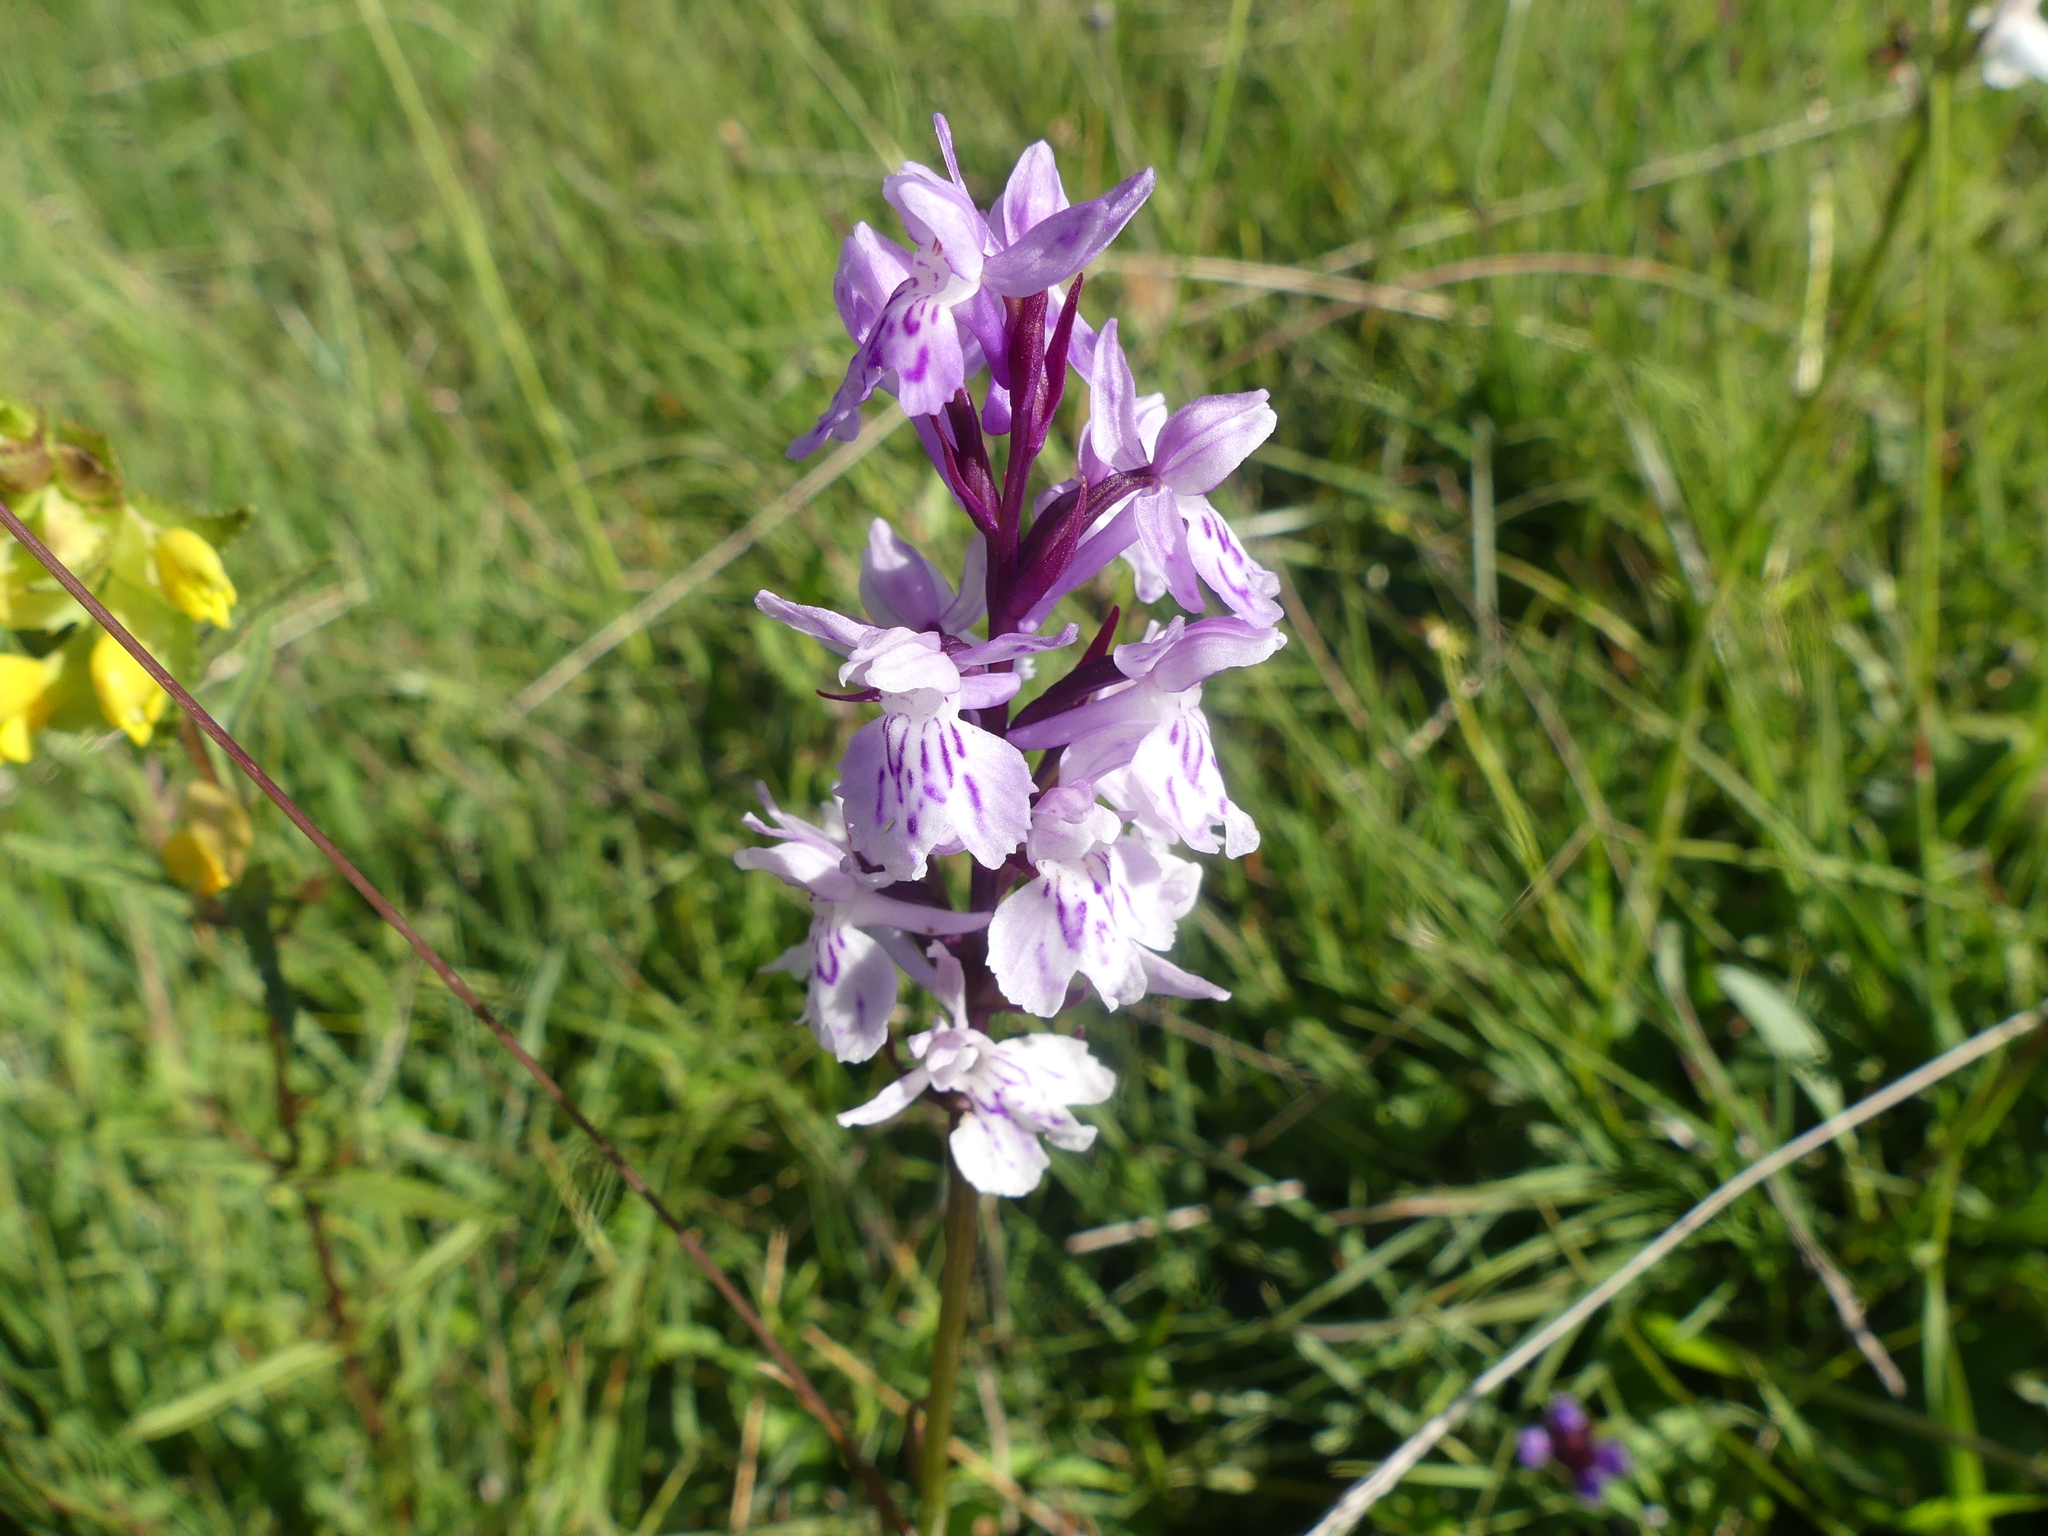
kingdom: Plantae
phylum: Tracheophyta
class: Liliopsida
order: Asparagales
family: Orchidaceae
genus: Dactylorhiza
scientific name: Dactylorhiza maculata
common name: Heath spotted-orchid
